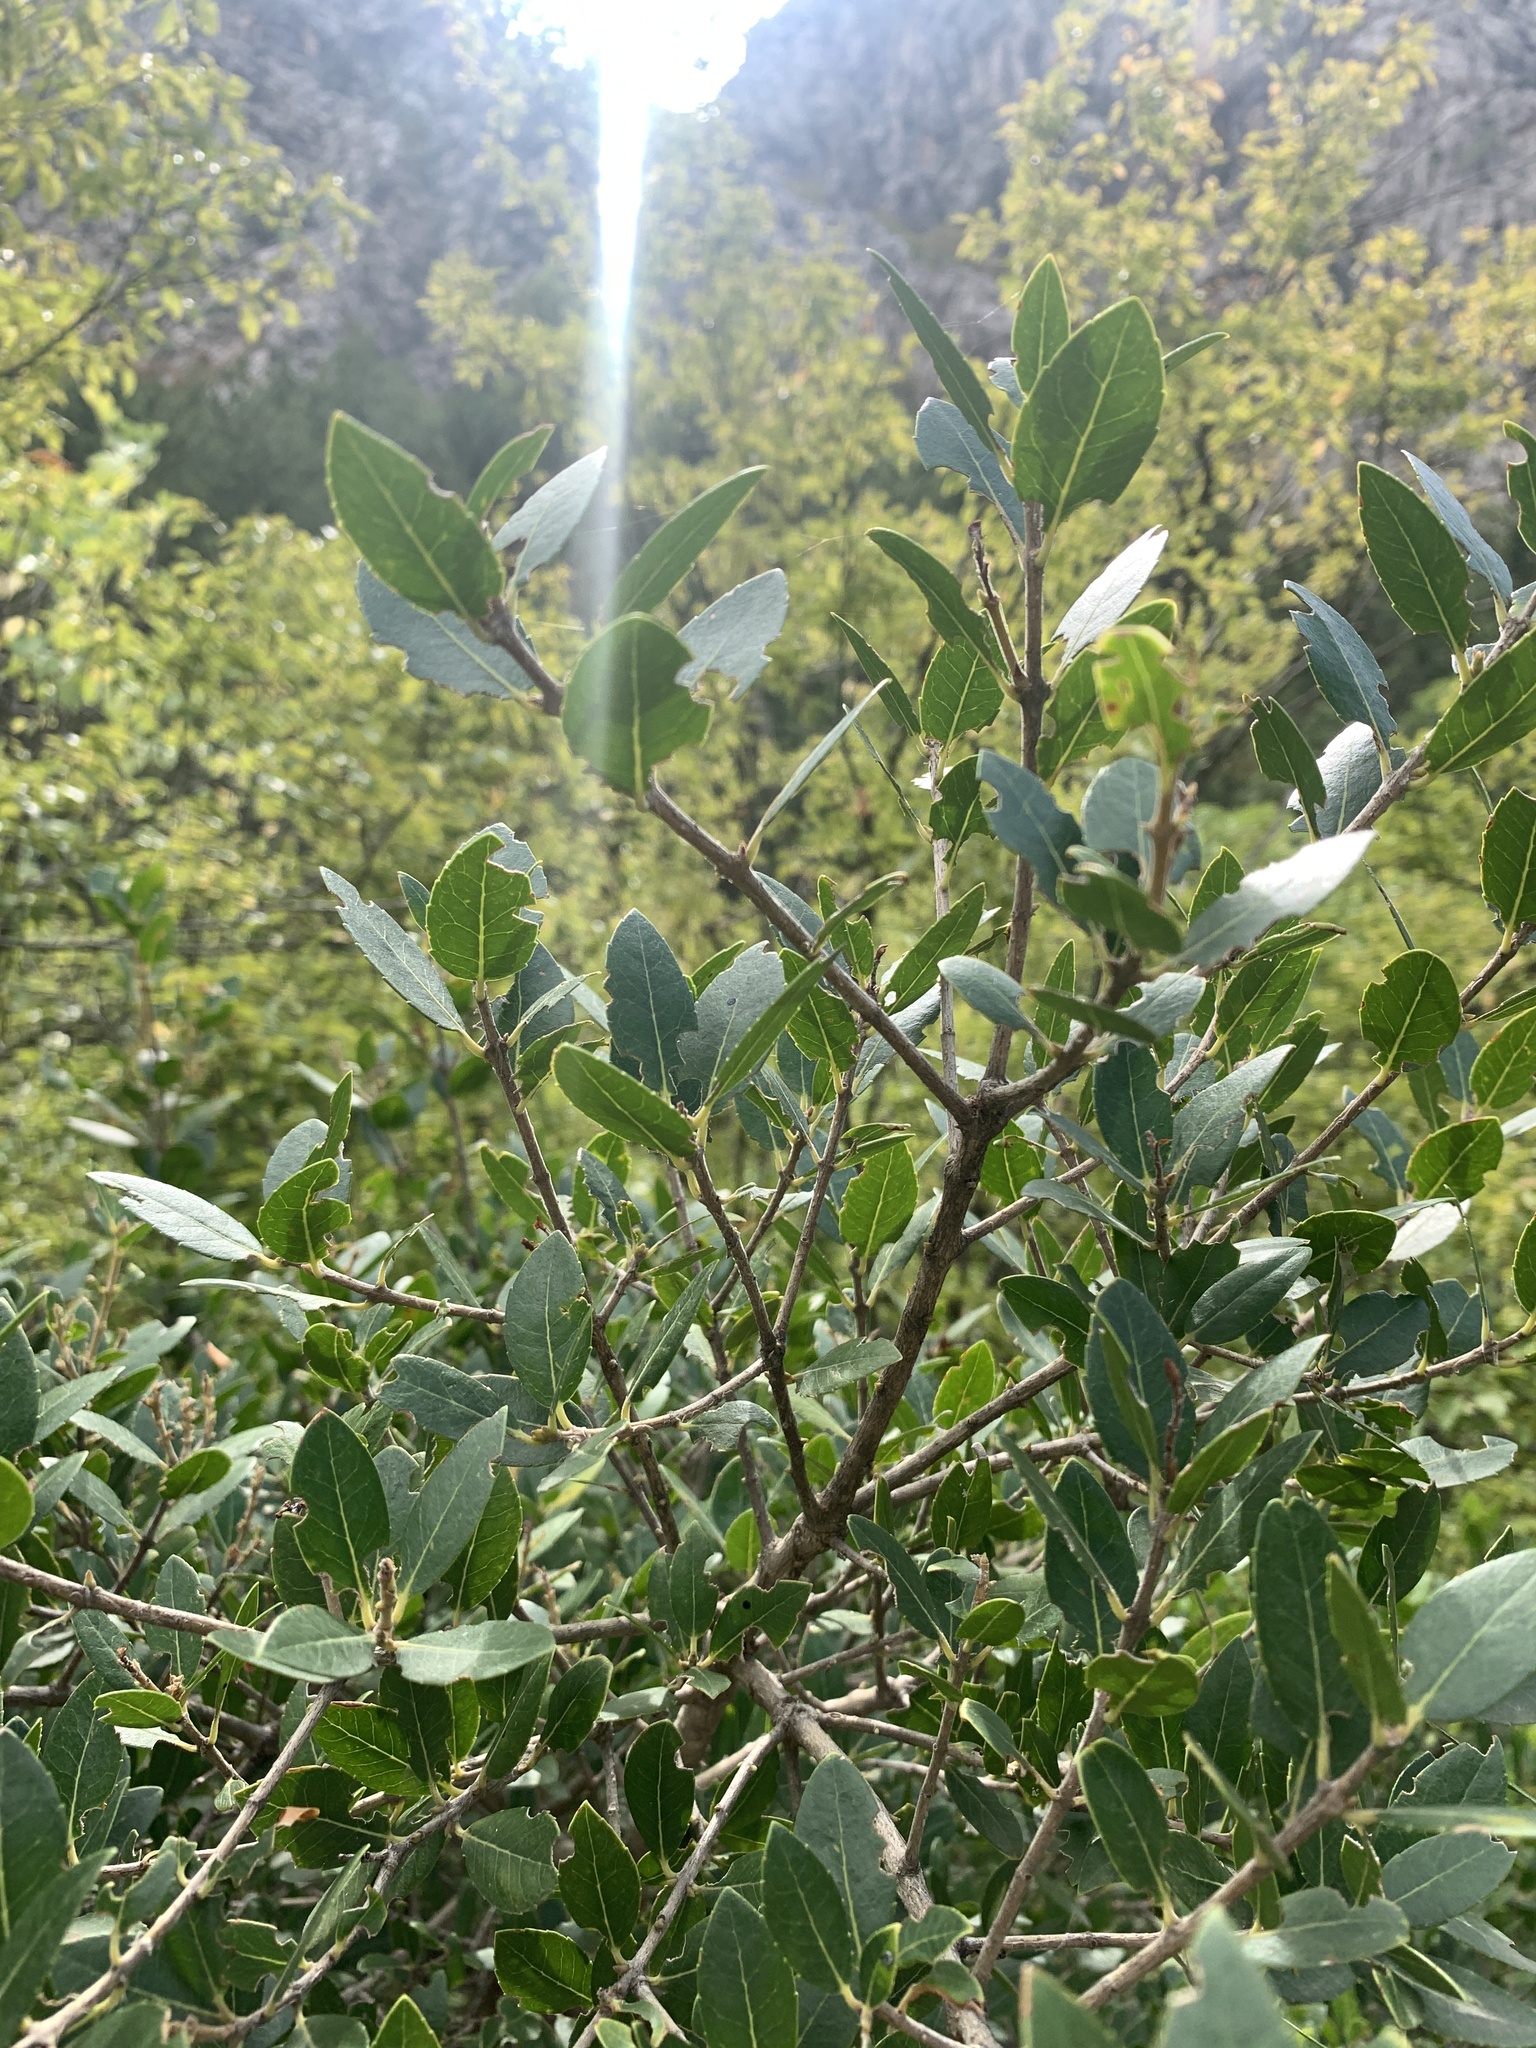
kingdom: Plantae
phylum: Tracheophyta
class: Magnoliopsida
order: Lamiales
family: Oleaceae
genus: Phillyrea
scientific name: Phillyrea latifolia
